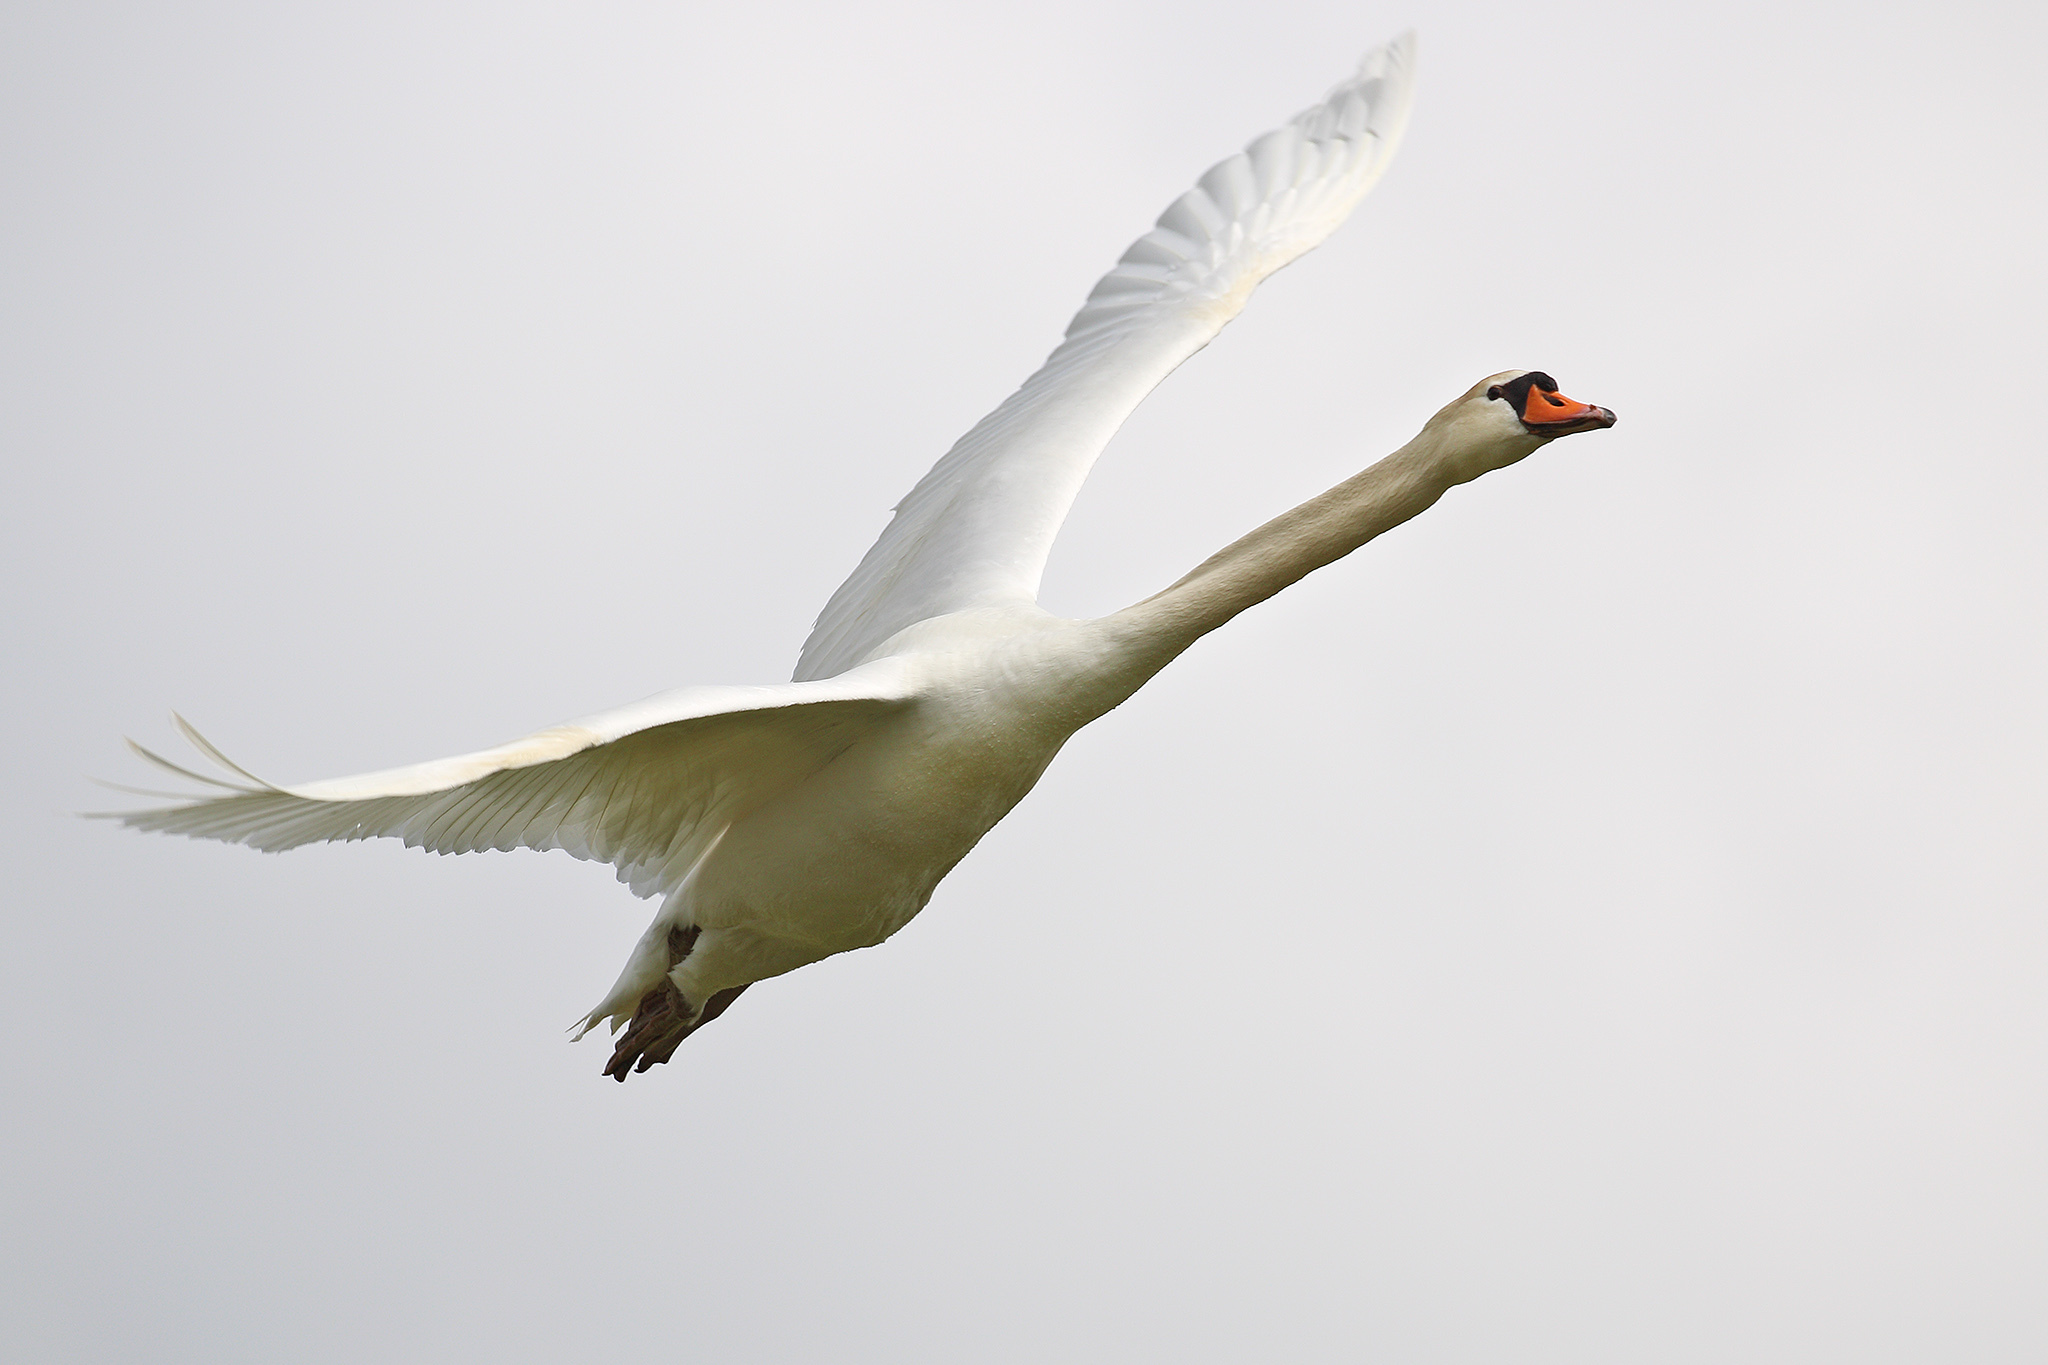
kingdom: Animalia
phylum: Chordata
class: Aves
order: Anseriformes
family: Anatidae
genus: Cygnus
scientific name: Cygnus olor
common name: Mute swan
